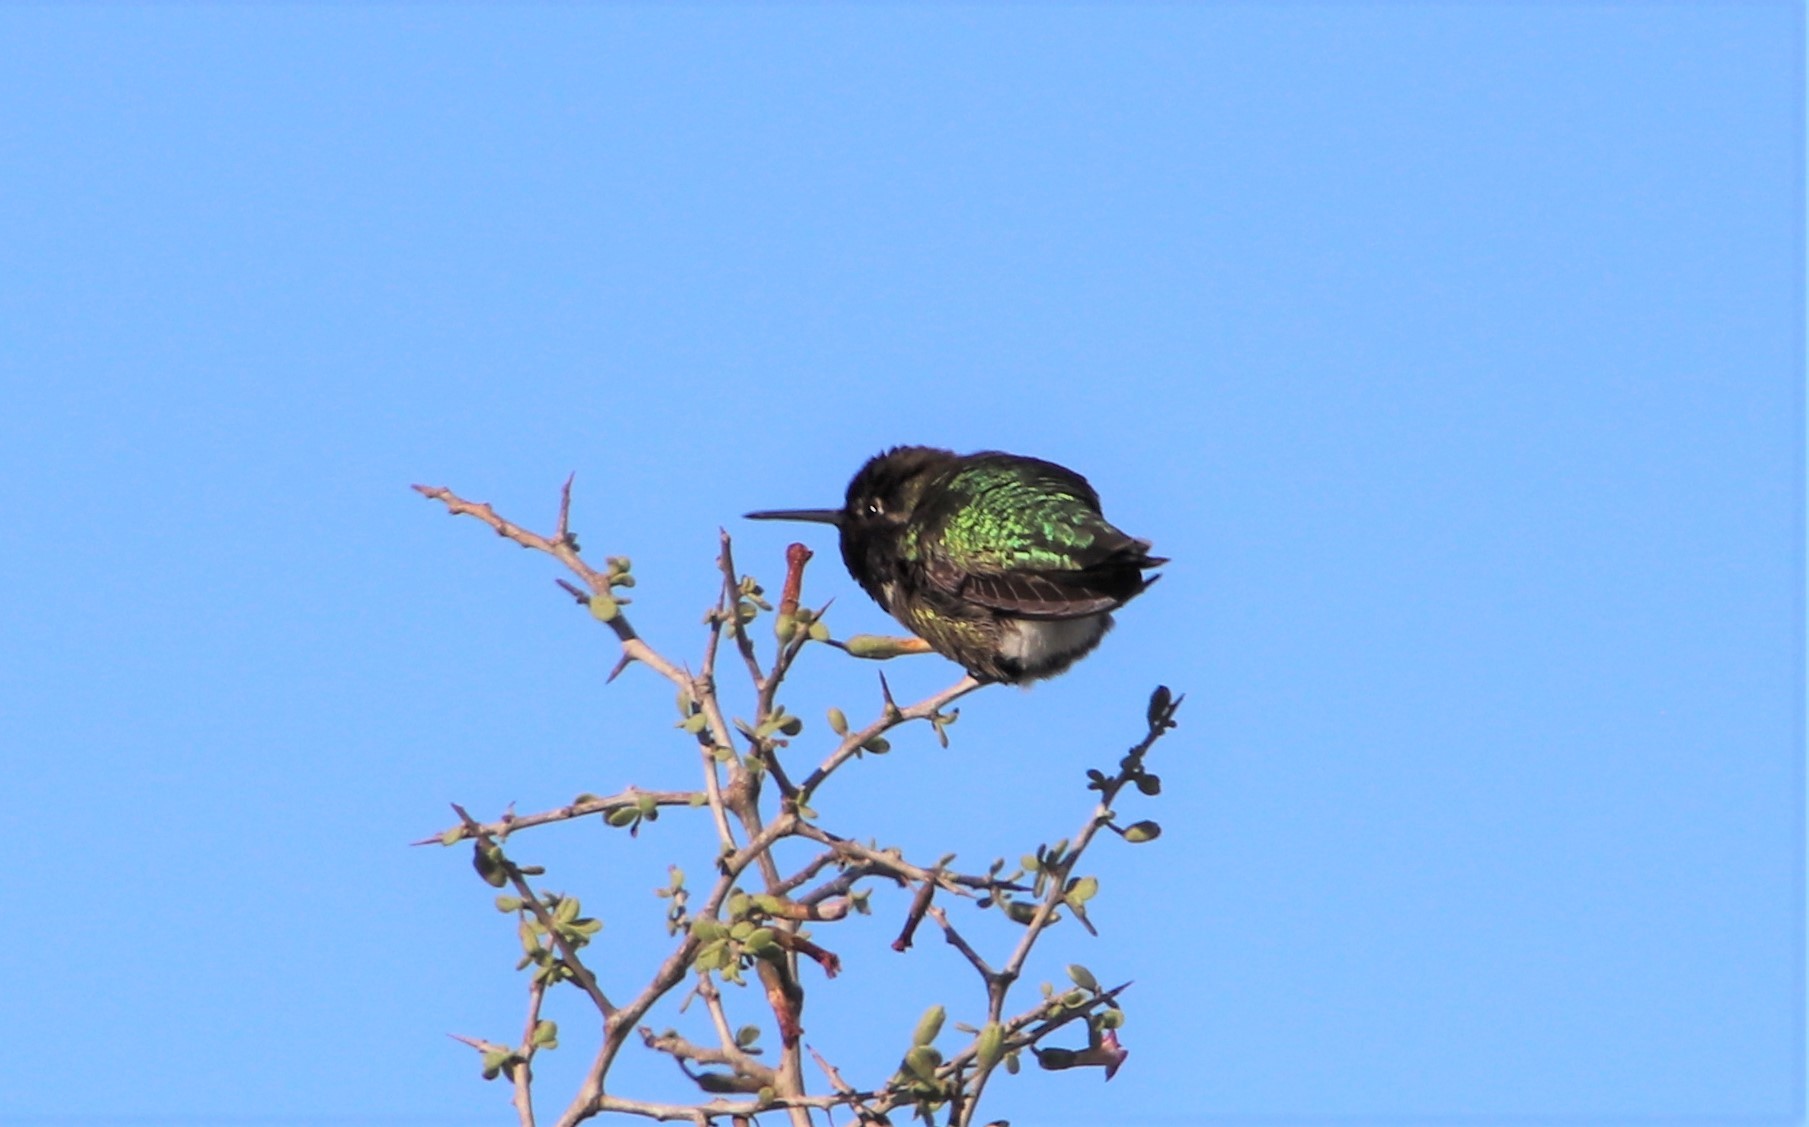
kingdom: Animalia
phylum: Chordata
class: Aves
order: Apodiformes
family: Trochilidae
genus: Calypte
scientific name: Calypte anna
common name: Anna's hummingbird
